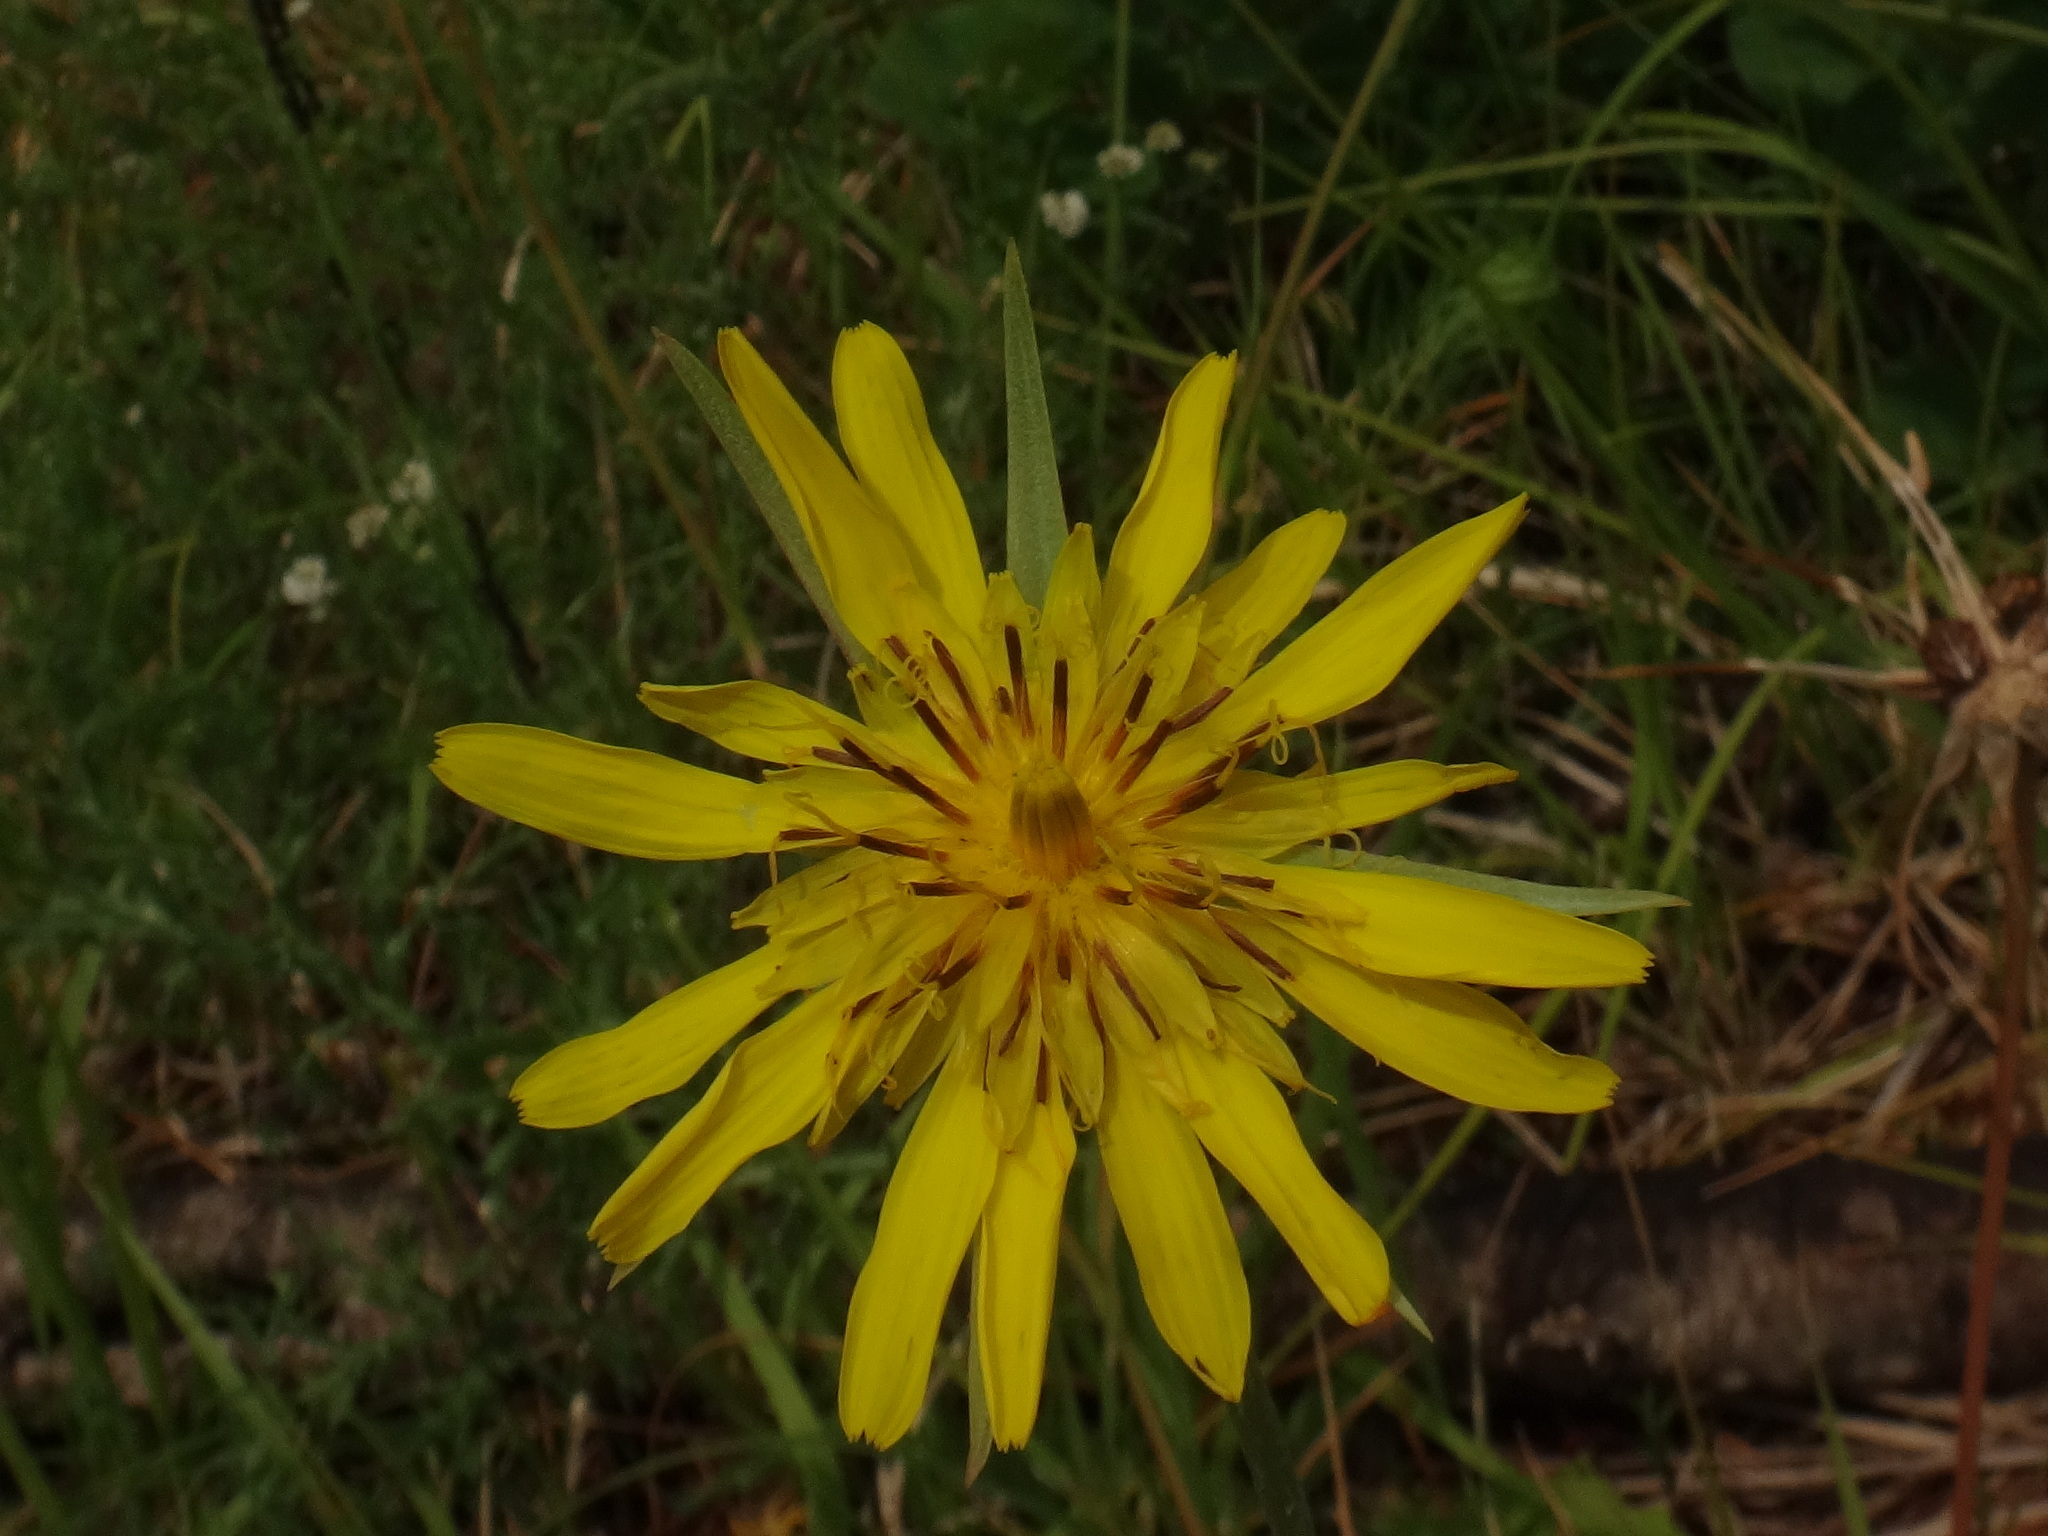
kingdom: Plantae
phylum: Tracheophyta
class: Magnoliopsida
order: Asterales
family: Asteraceae
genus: Tragopogon
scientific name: Tragopogon orientalis
